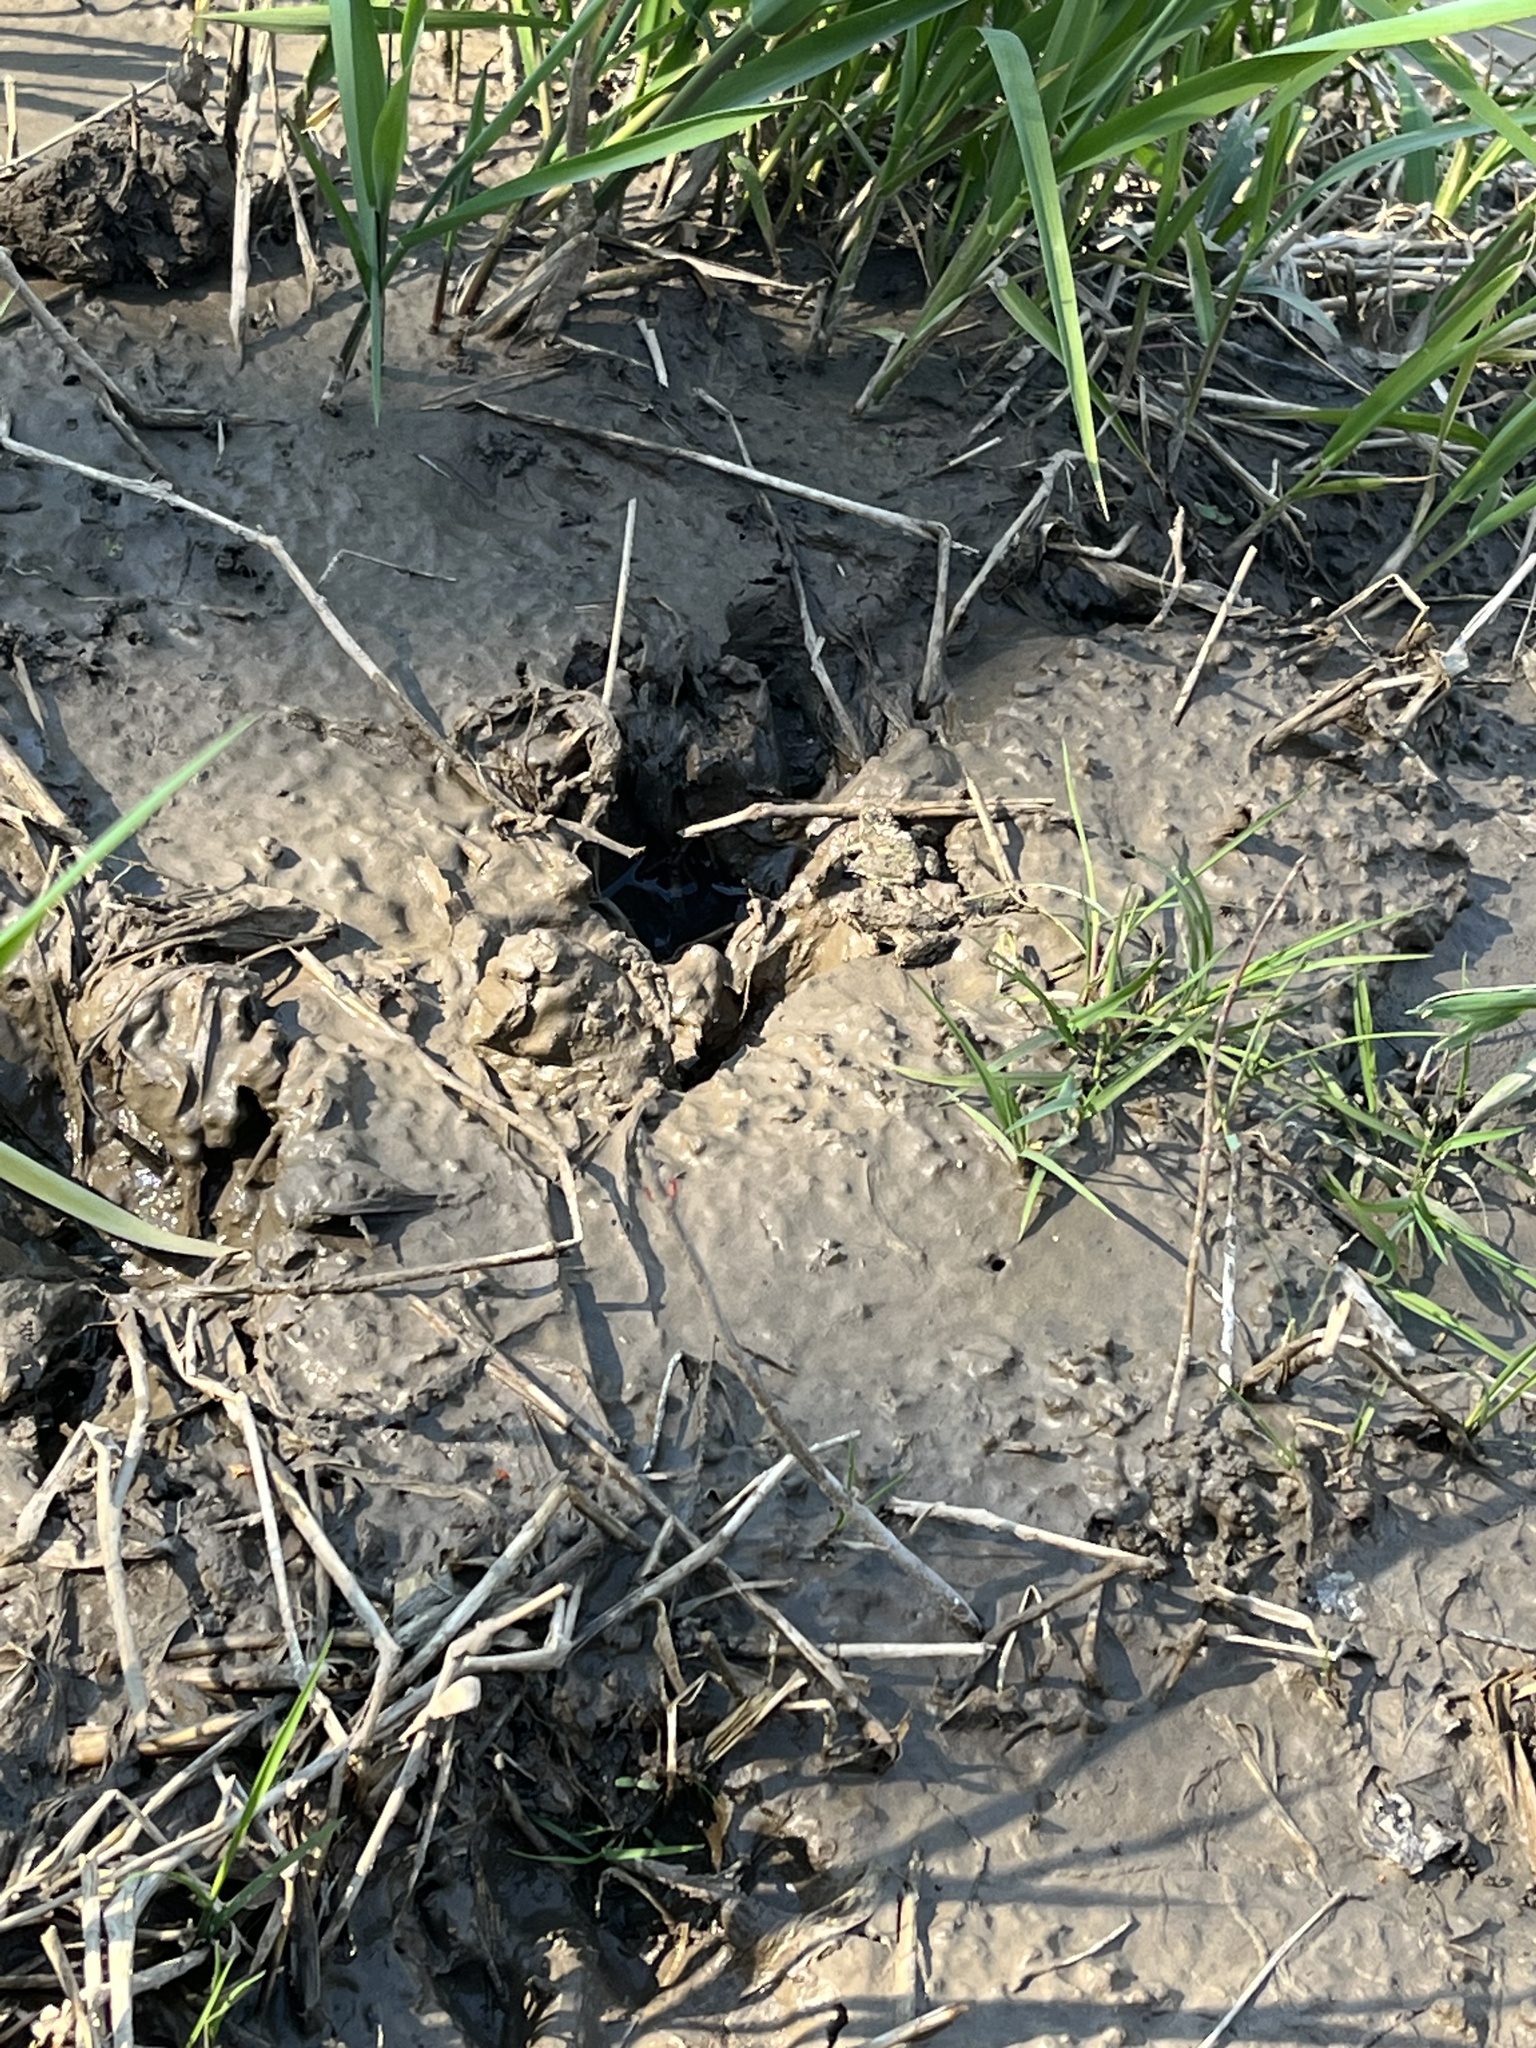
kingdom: Animalia
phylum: Chordata
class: Amphibia
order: Anura
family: Hylidae
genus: Acris
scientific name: Acris blanchardi
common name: Blanchard's cricket frog
